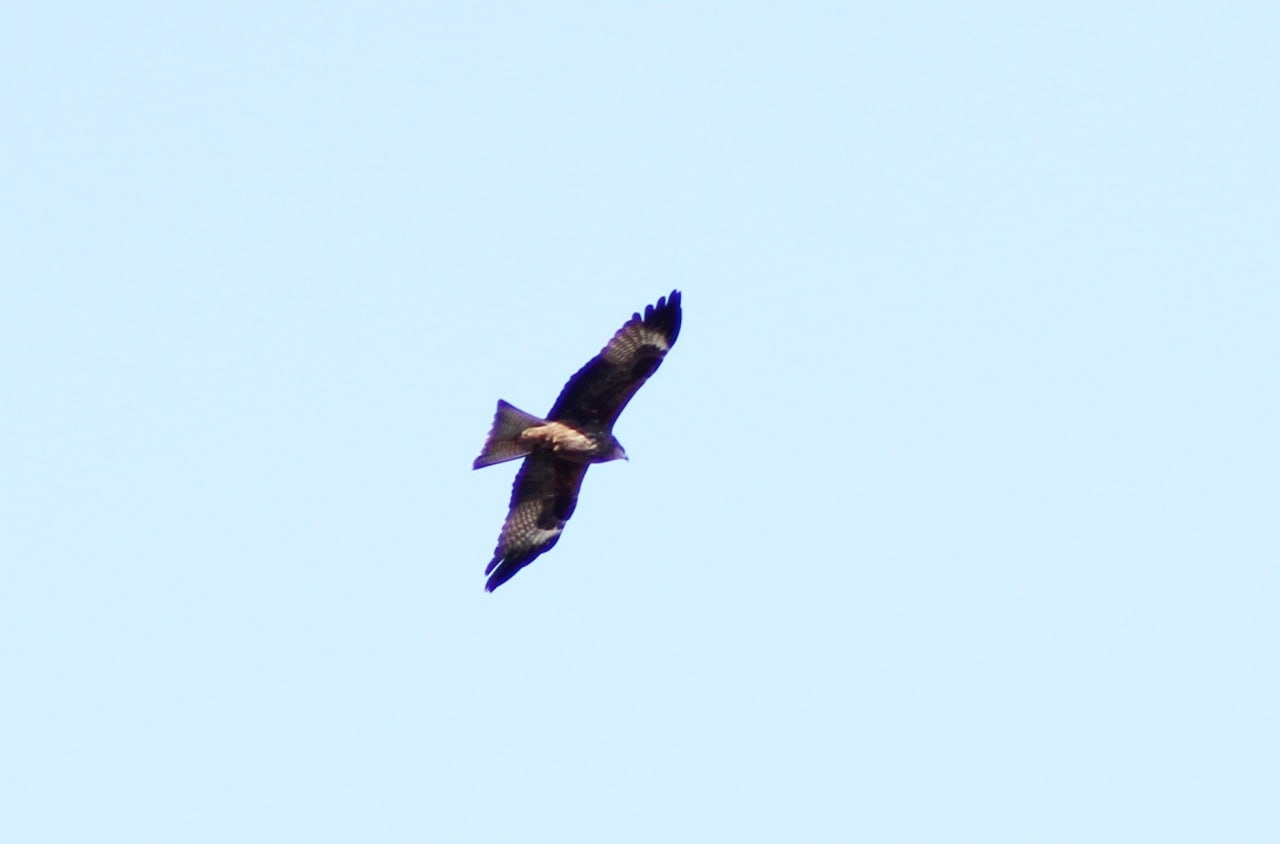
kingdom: Animalia
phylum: Chordata
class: Aves
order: Accipitriformes
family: Accipitridae
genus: Milvus
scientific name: Milvus migrans
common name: Black kite
